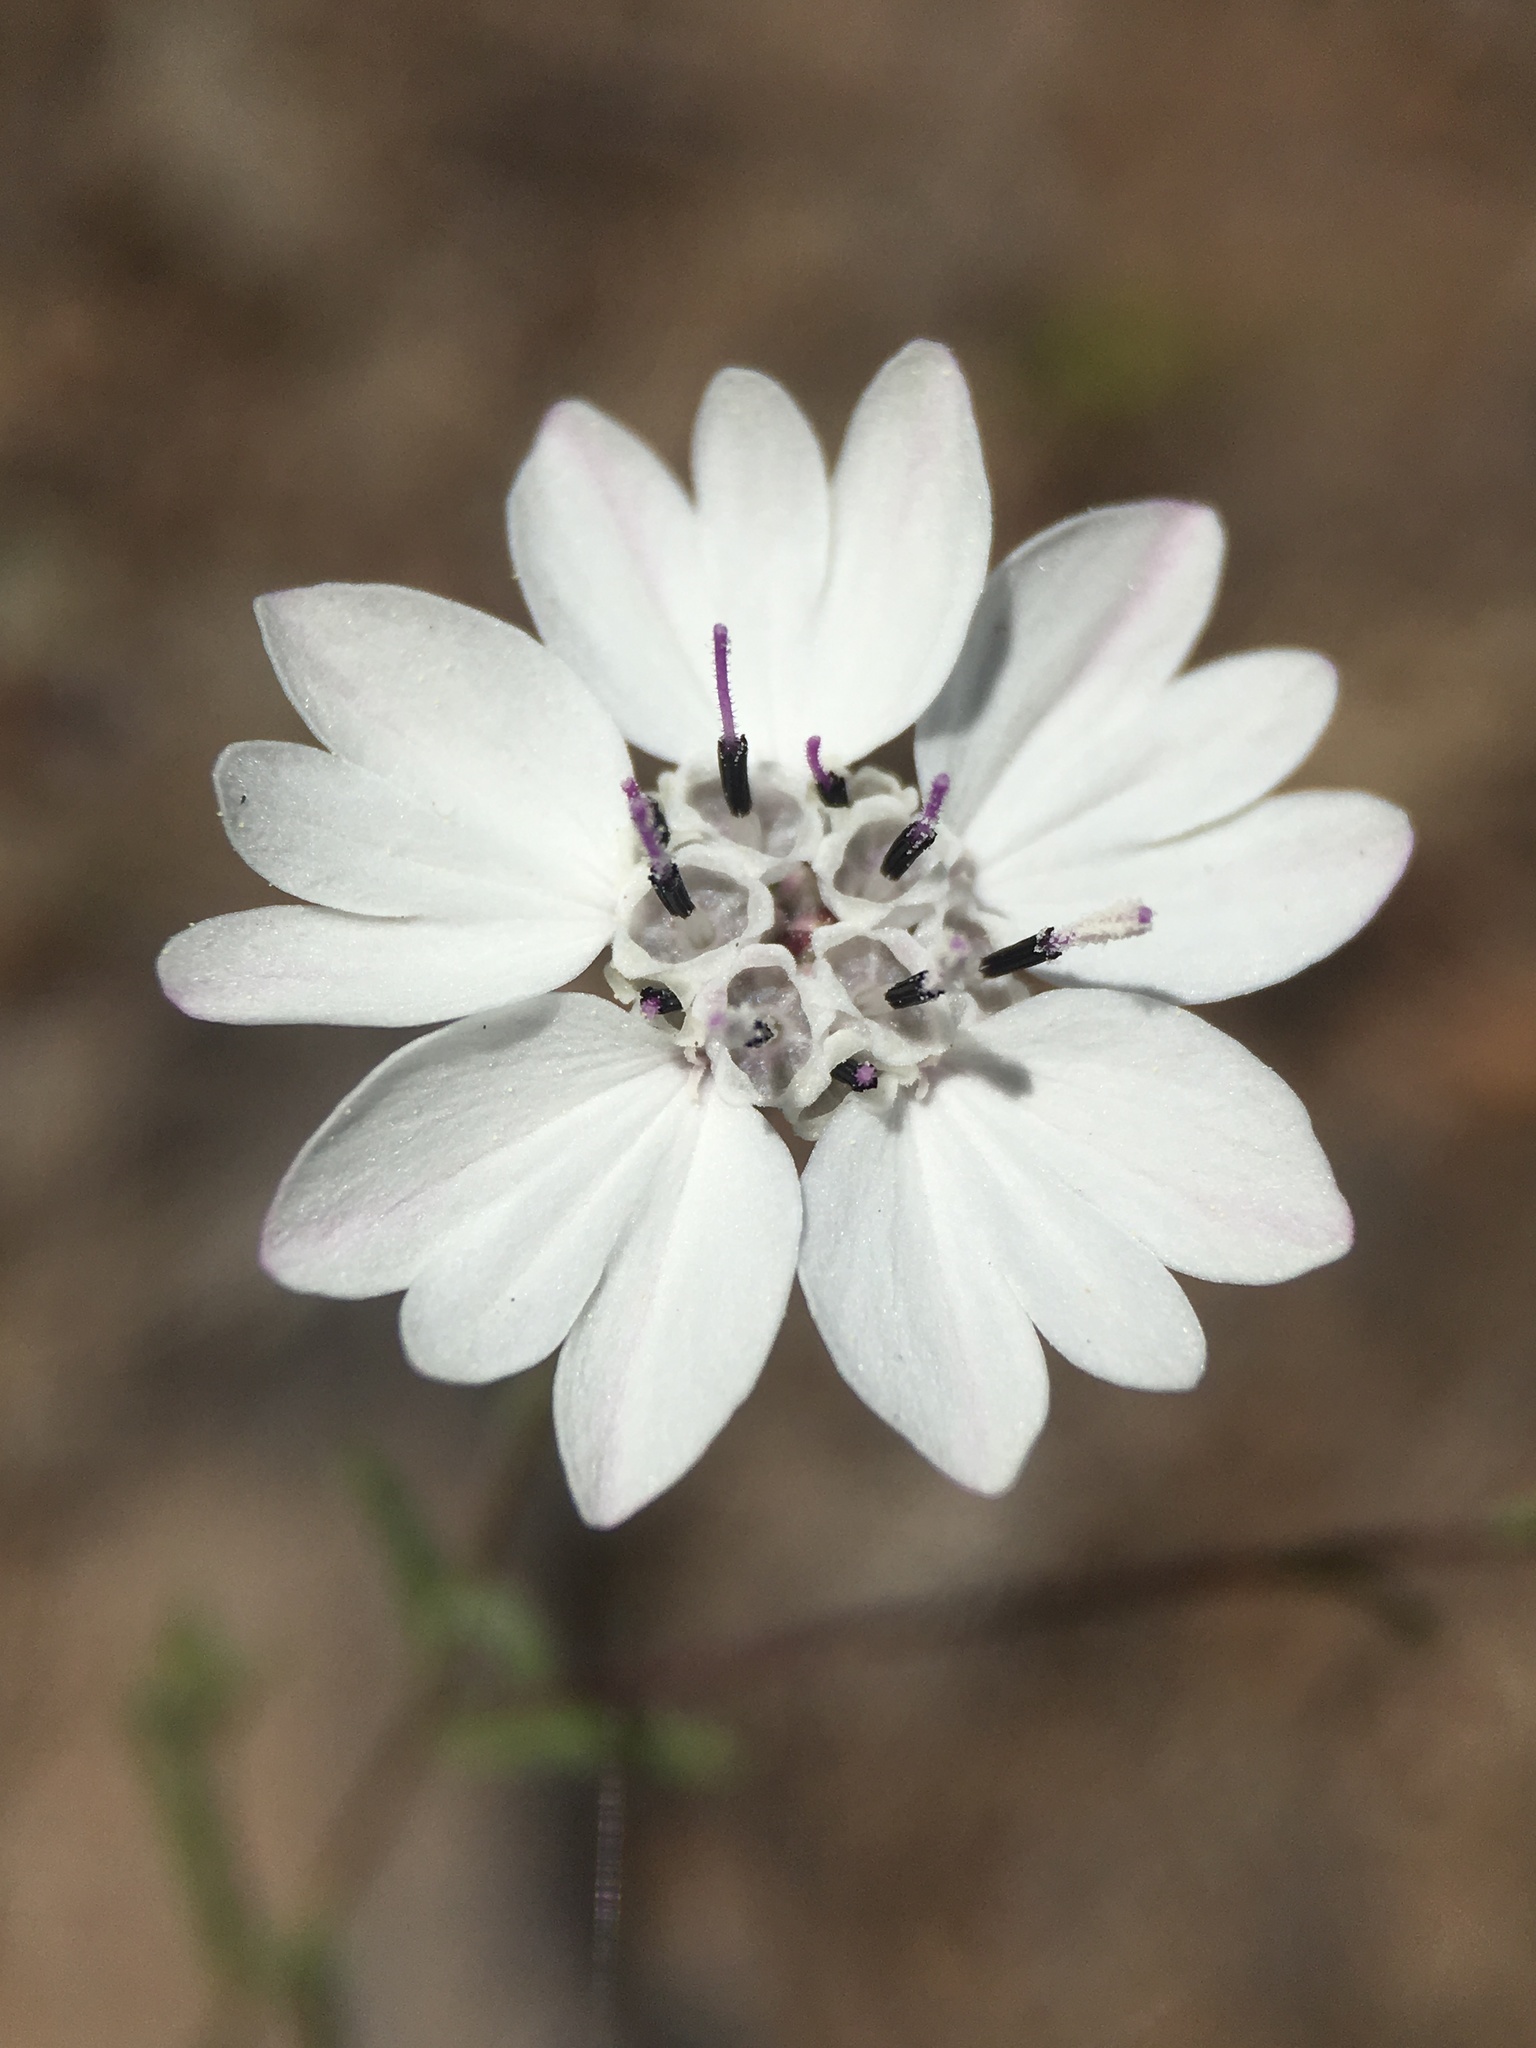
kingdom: Plantae
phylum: Tracheophyta
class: Magnoliopsida
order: Asterales
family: Asteraceae
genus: Blepharipappus
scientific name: Blepharipappus scaber
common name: Rough blepharipappus
